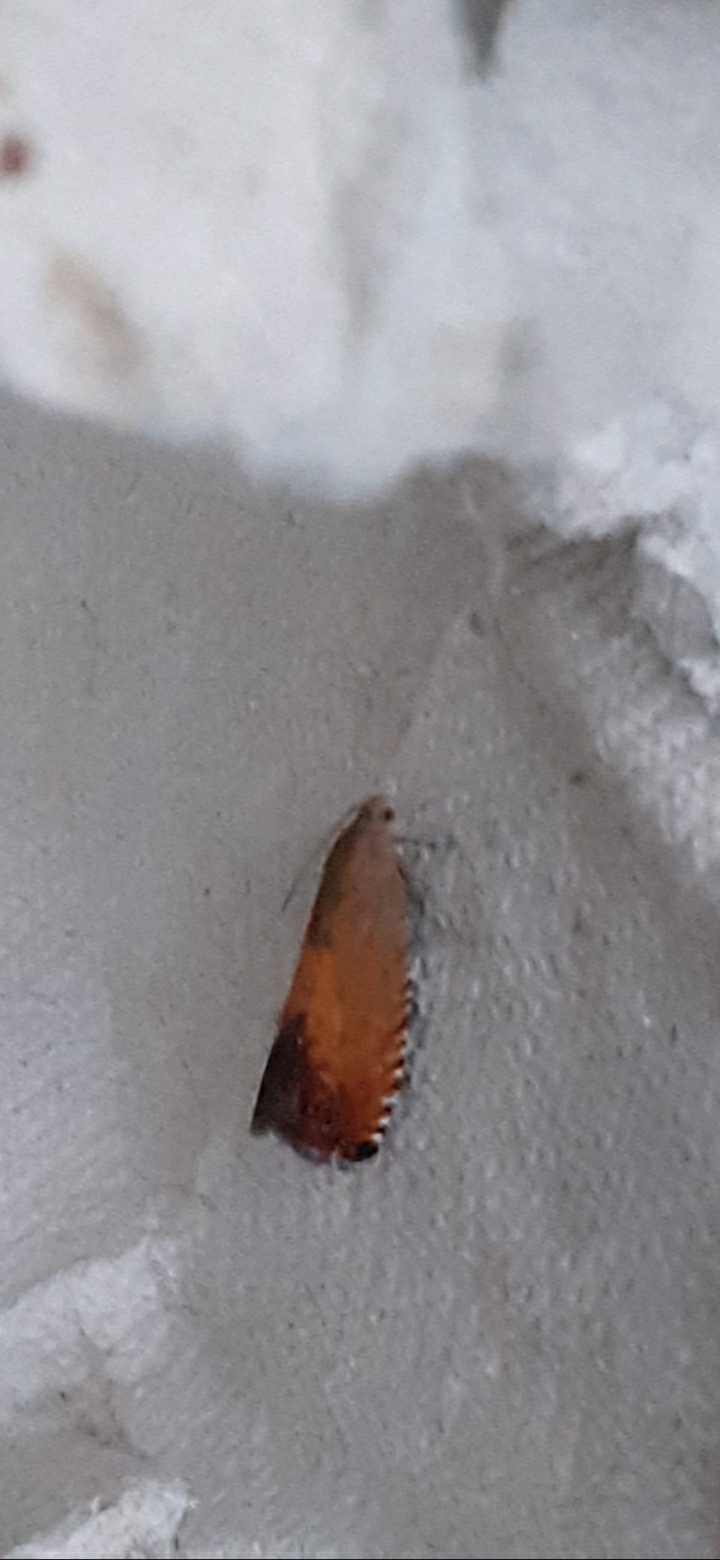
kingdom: Animalia
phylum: Arthropoda
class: Insecta
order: Lepidoptera
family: Tortricidae
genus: Pammene
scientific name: Pammene aurita
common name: Sycamore piercer
